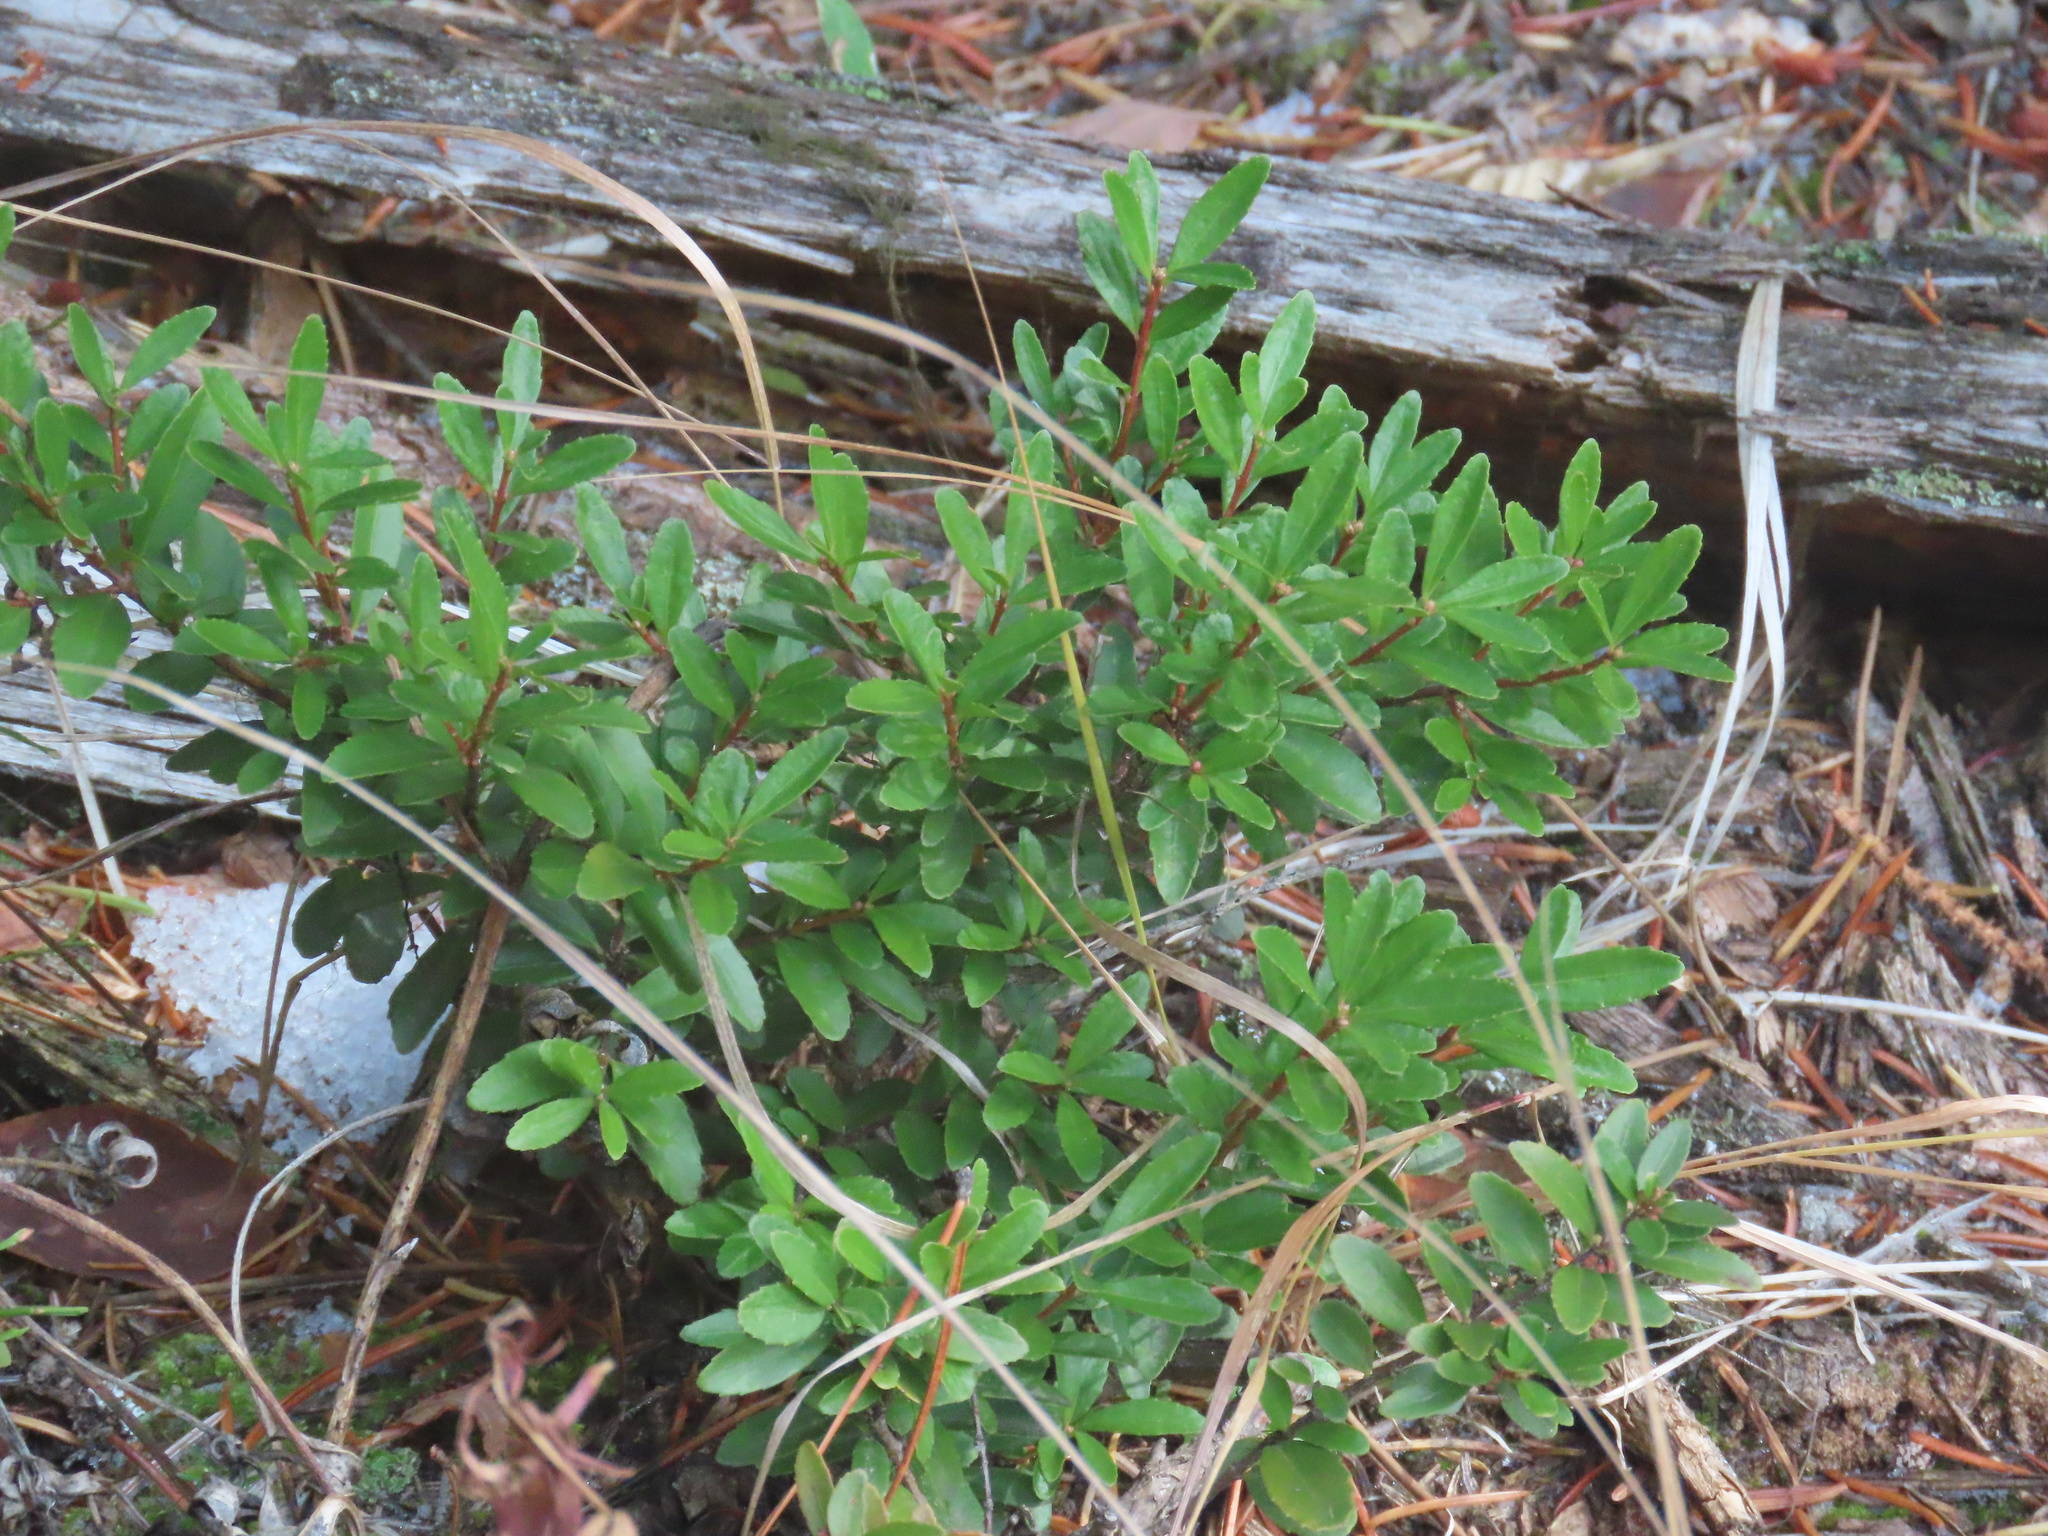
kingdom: Plantae
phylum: Tracheophyta
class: Magnoliopsida
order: Celastrales
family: Celastraceae
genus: Paxistima
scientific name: Paxistima myrsinites
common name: Mountain-lover
